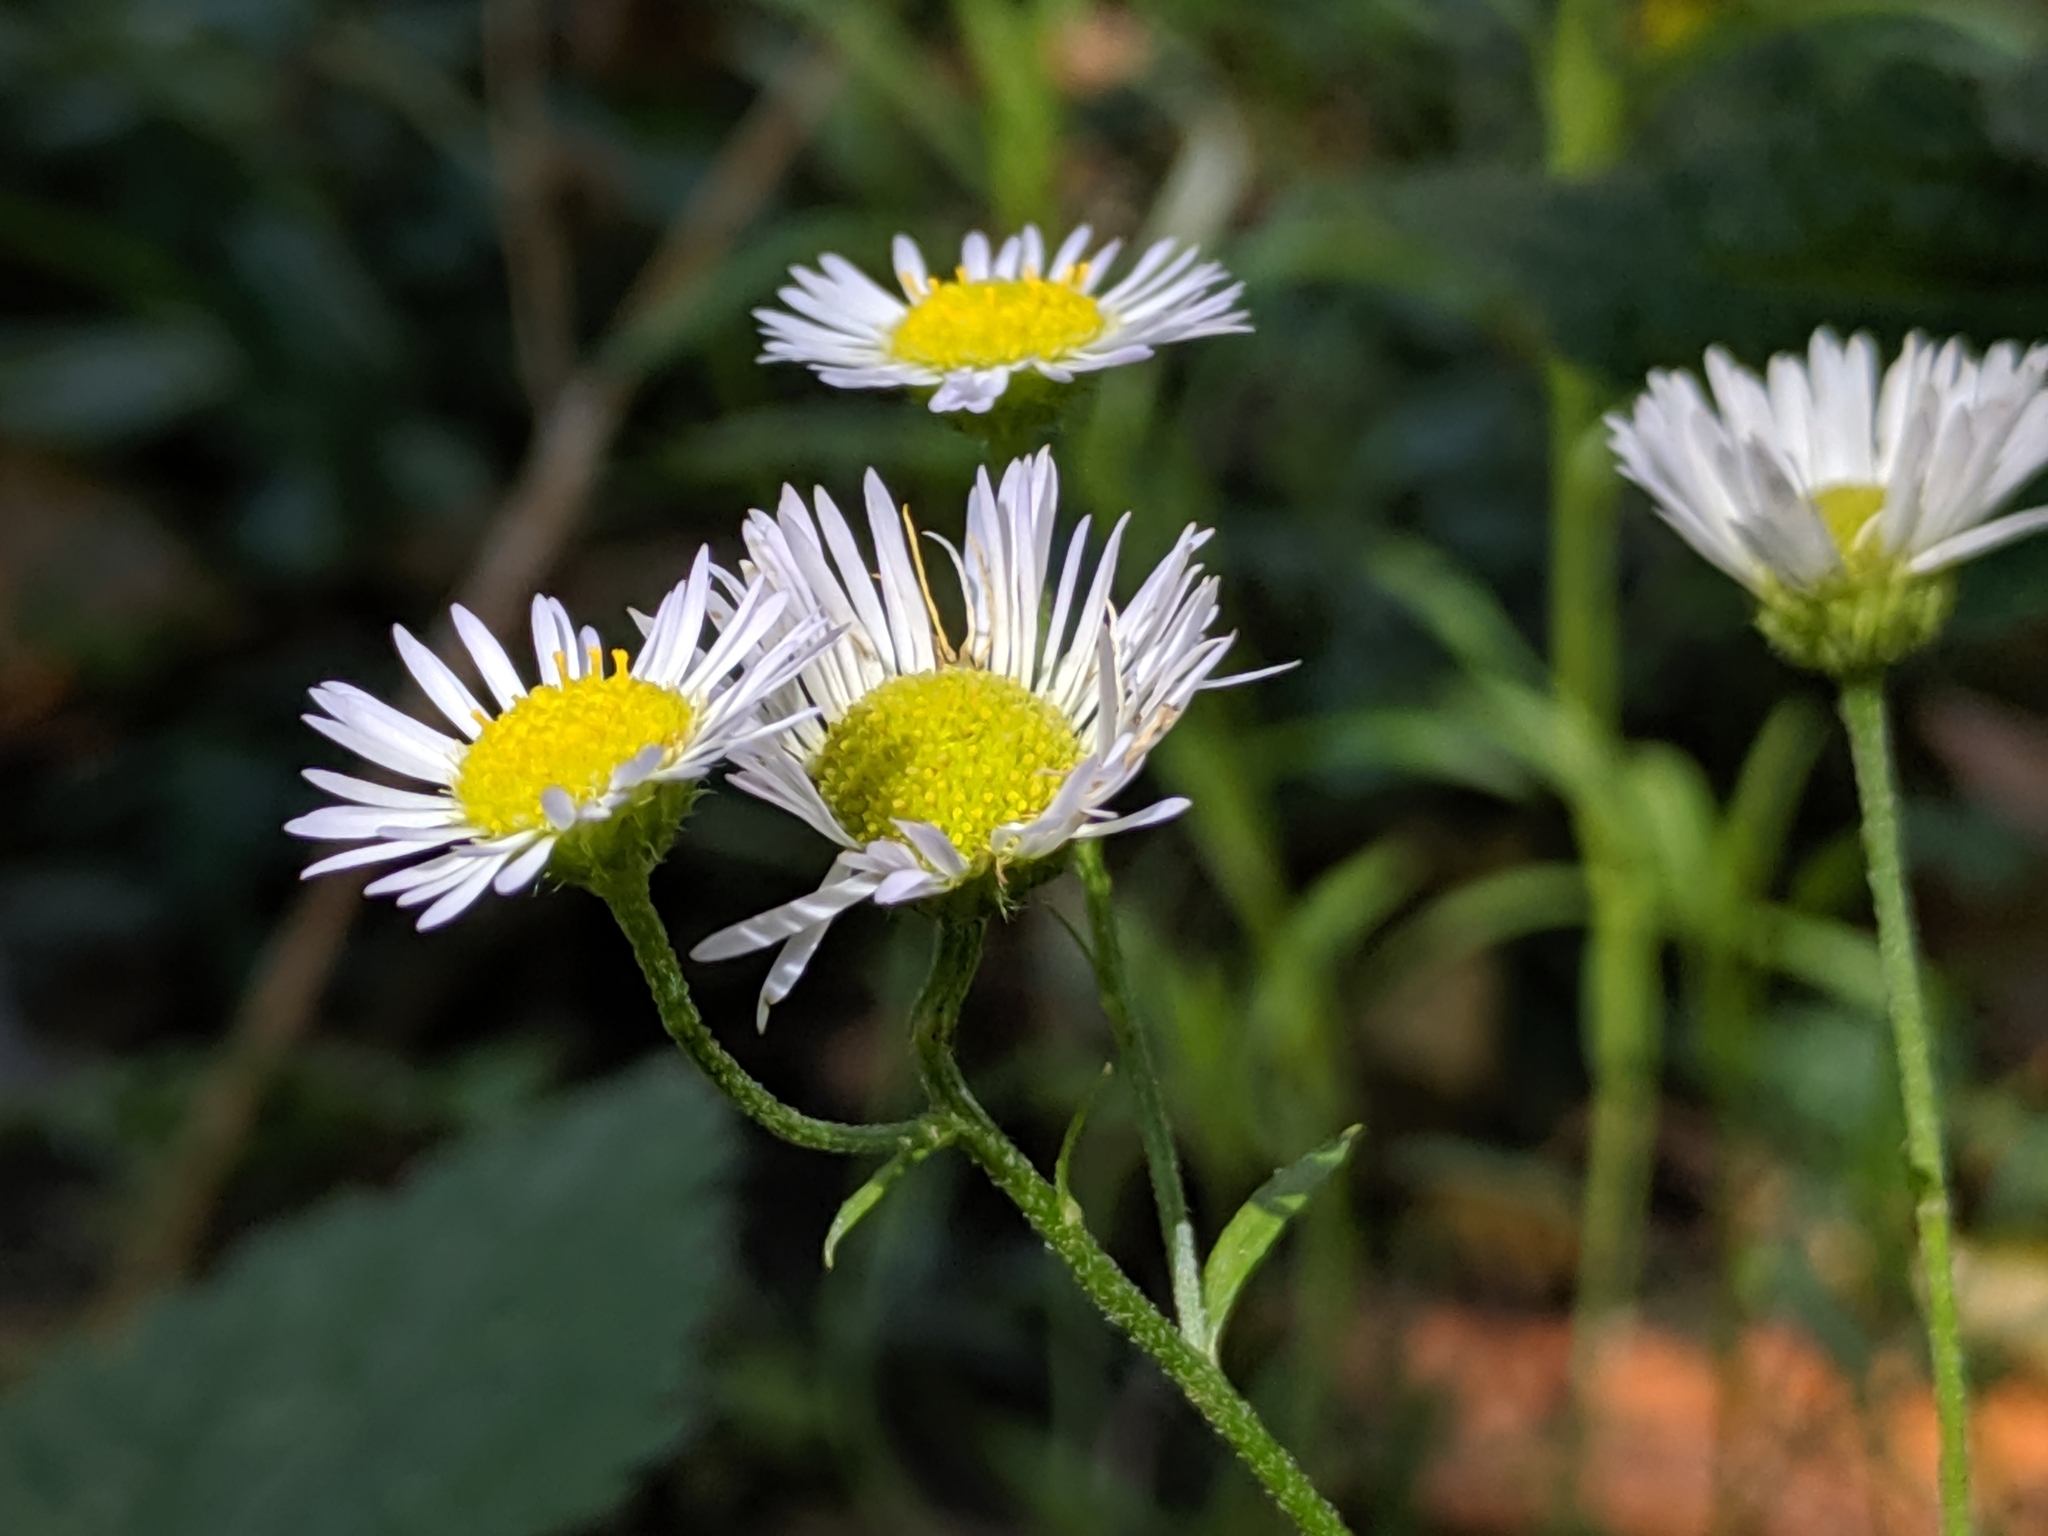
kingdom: Plantae
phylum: Tracheophyta
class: Magnoliopsida
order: Asterales
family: Asteraceae
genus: Erigeron
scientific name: Erigeron annuus
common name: Tall fleabane
